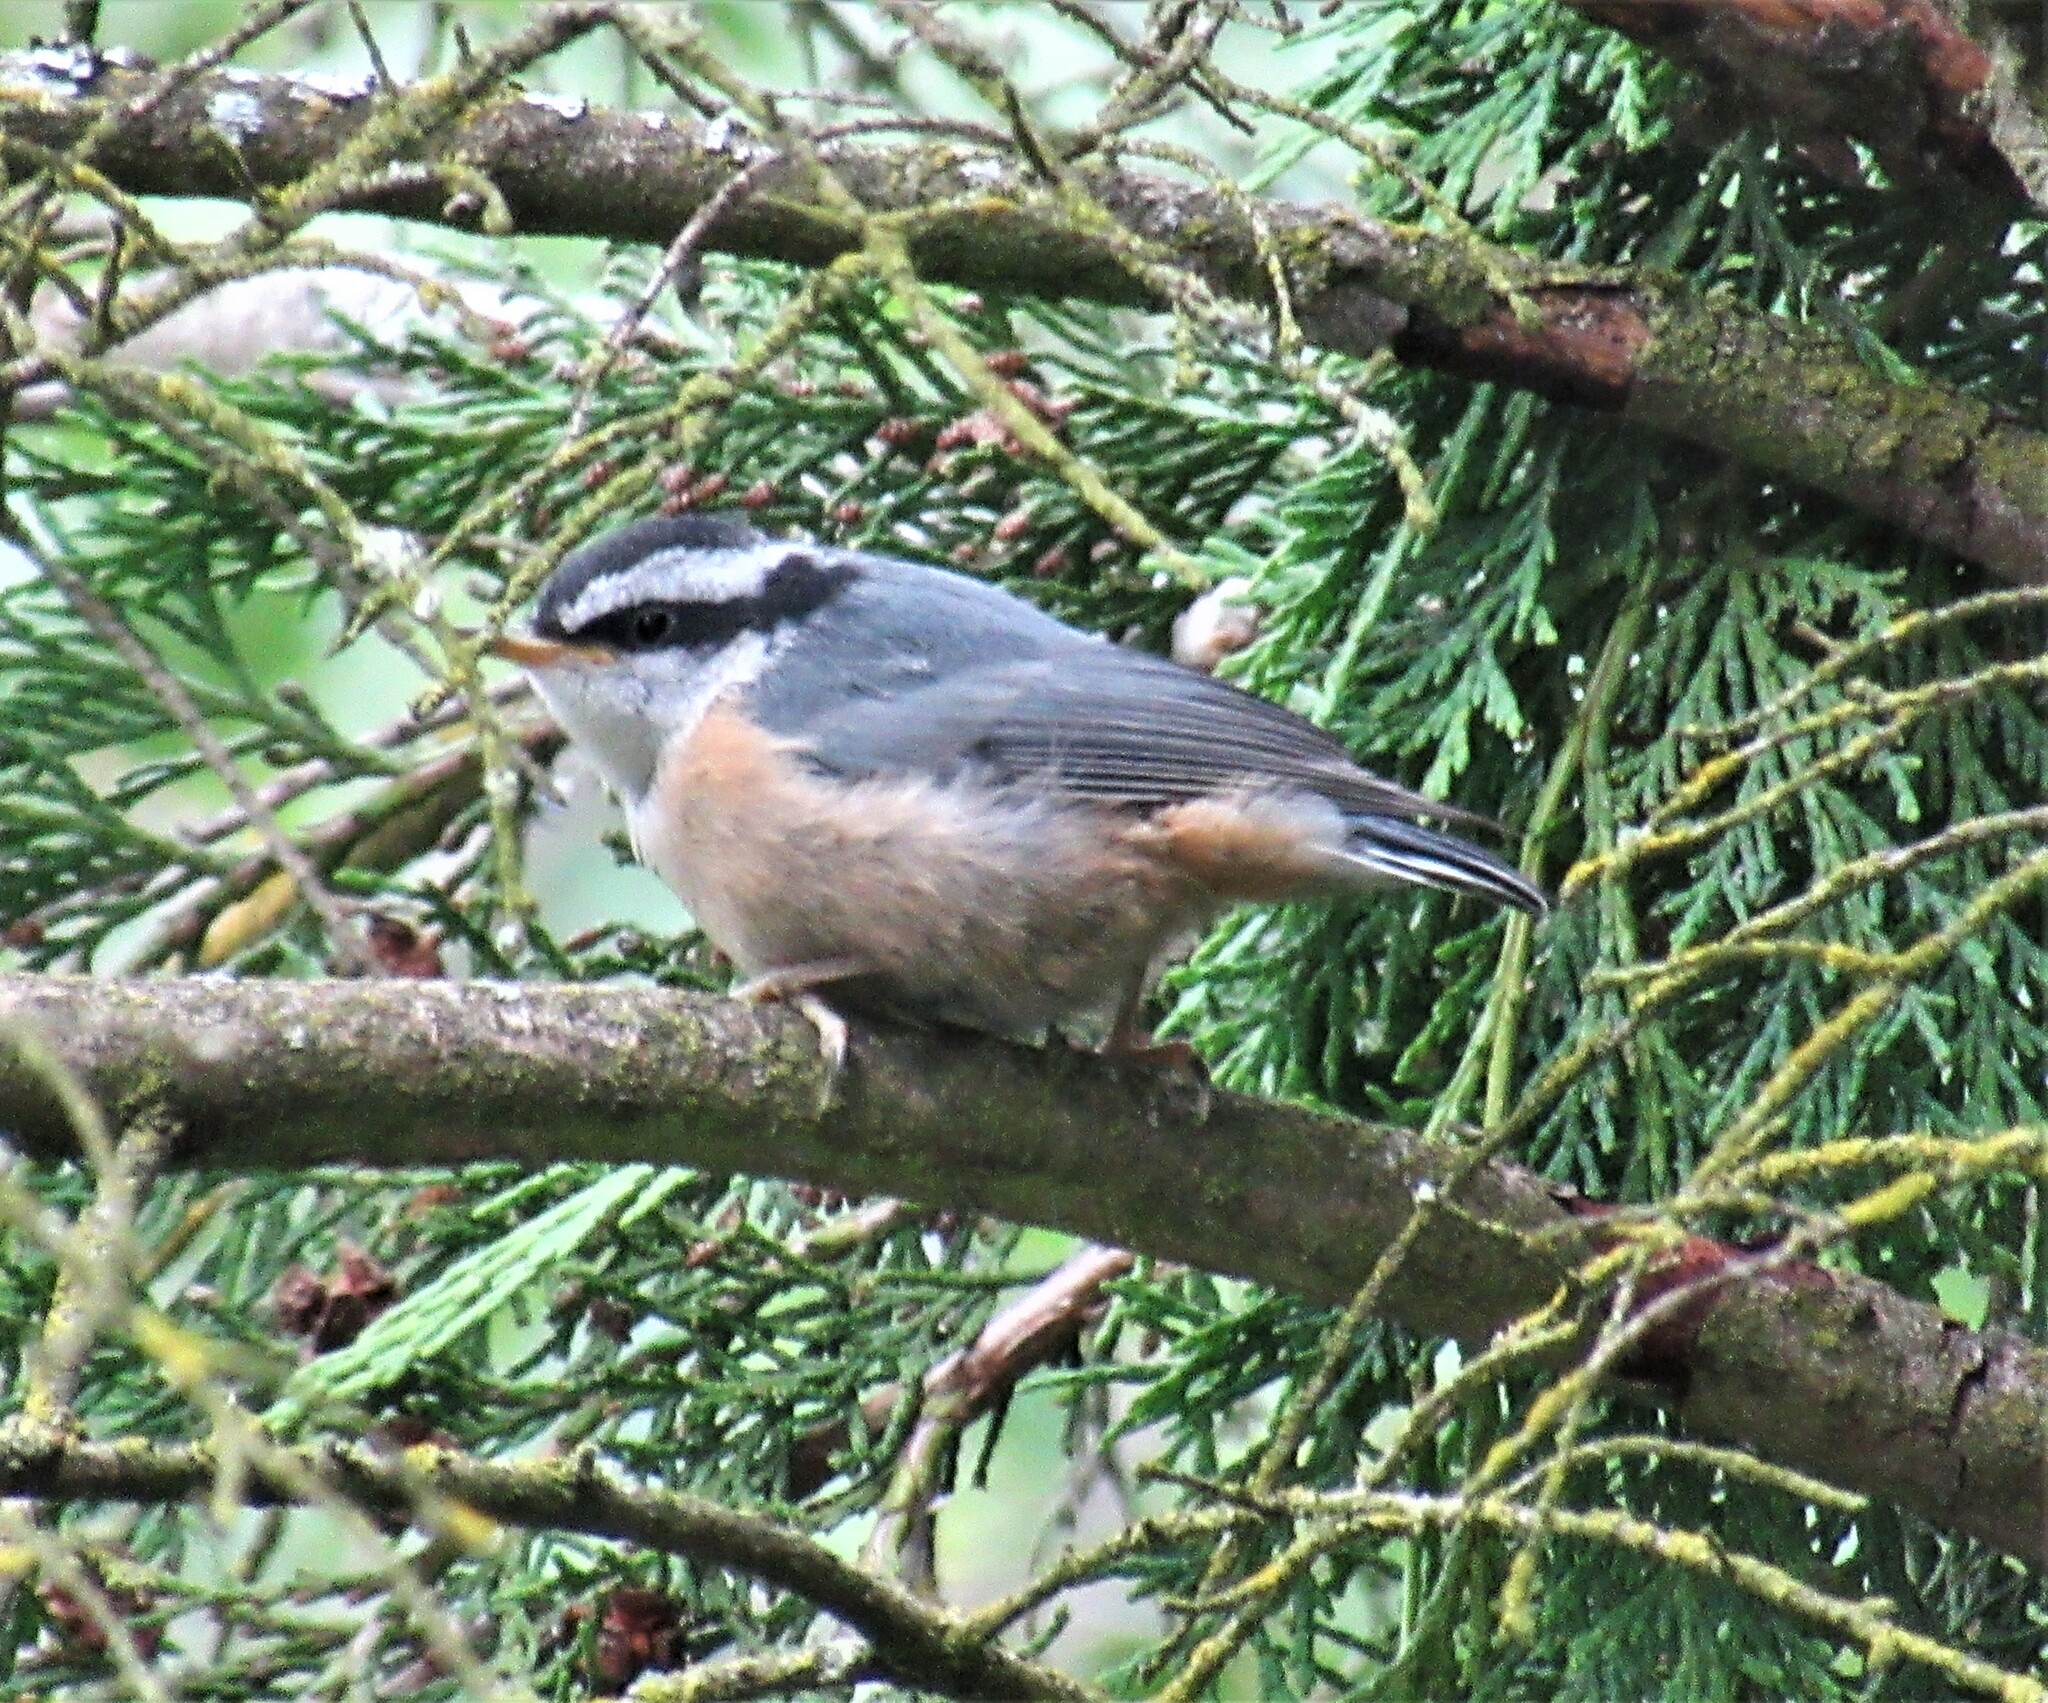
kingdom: Animalia
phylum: Chordata
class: Aves
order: Passeriformes
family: Sittidae
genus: Sitta
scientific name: Sitta canadensis
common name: Red-breasted nuthatch
